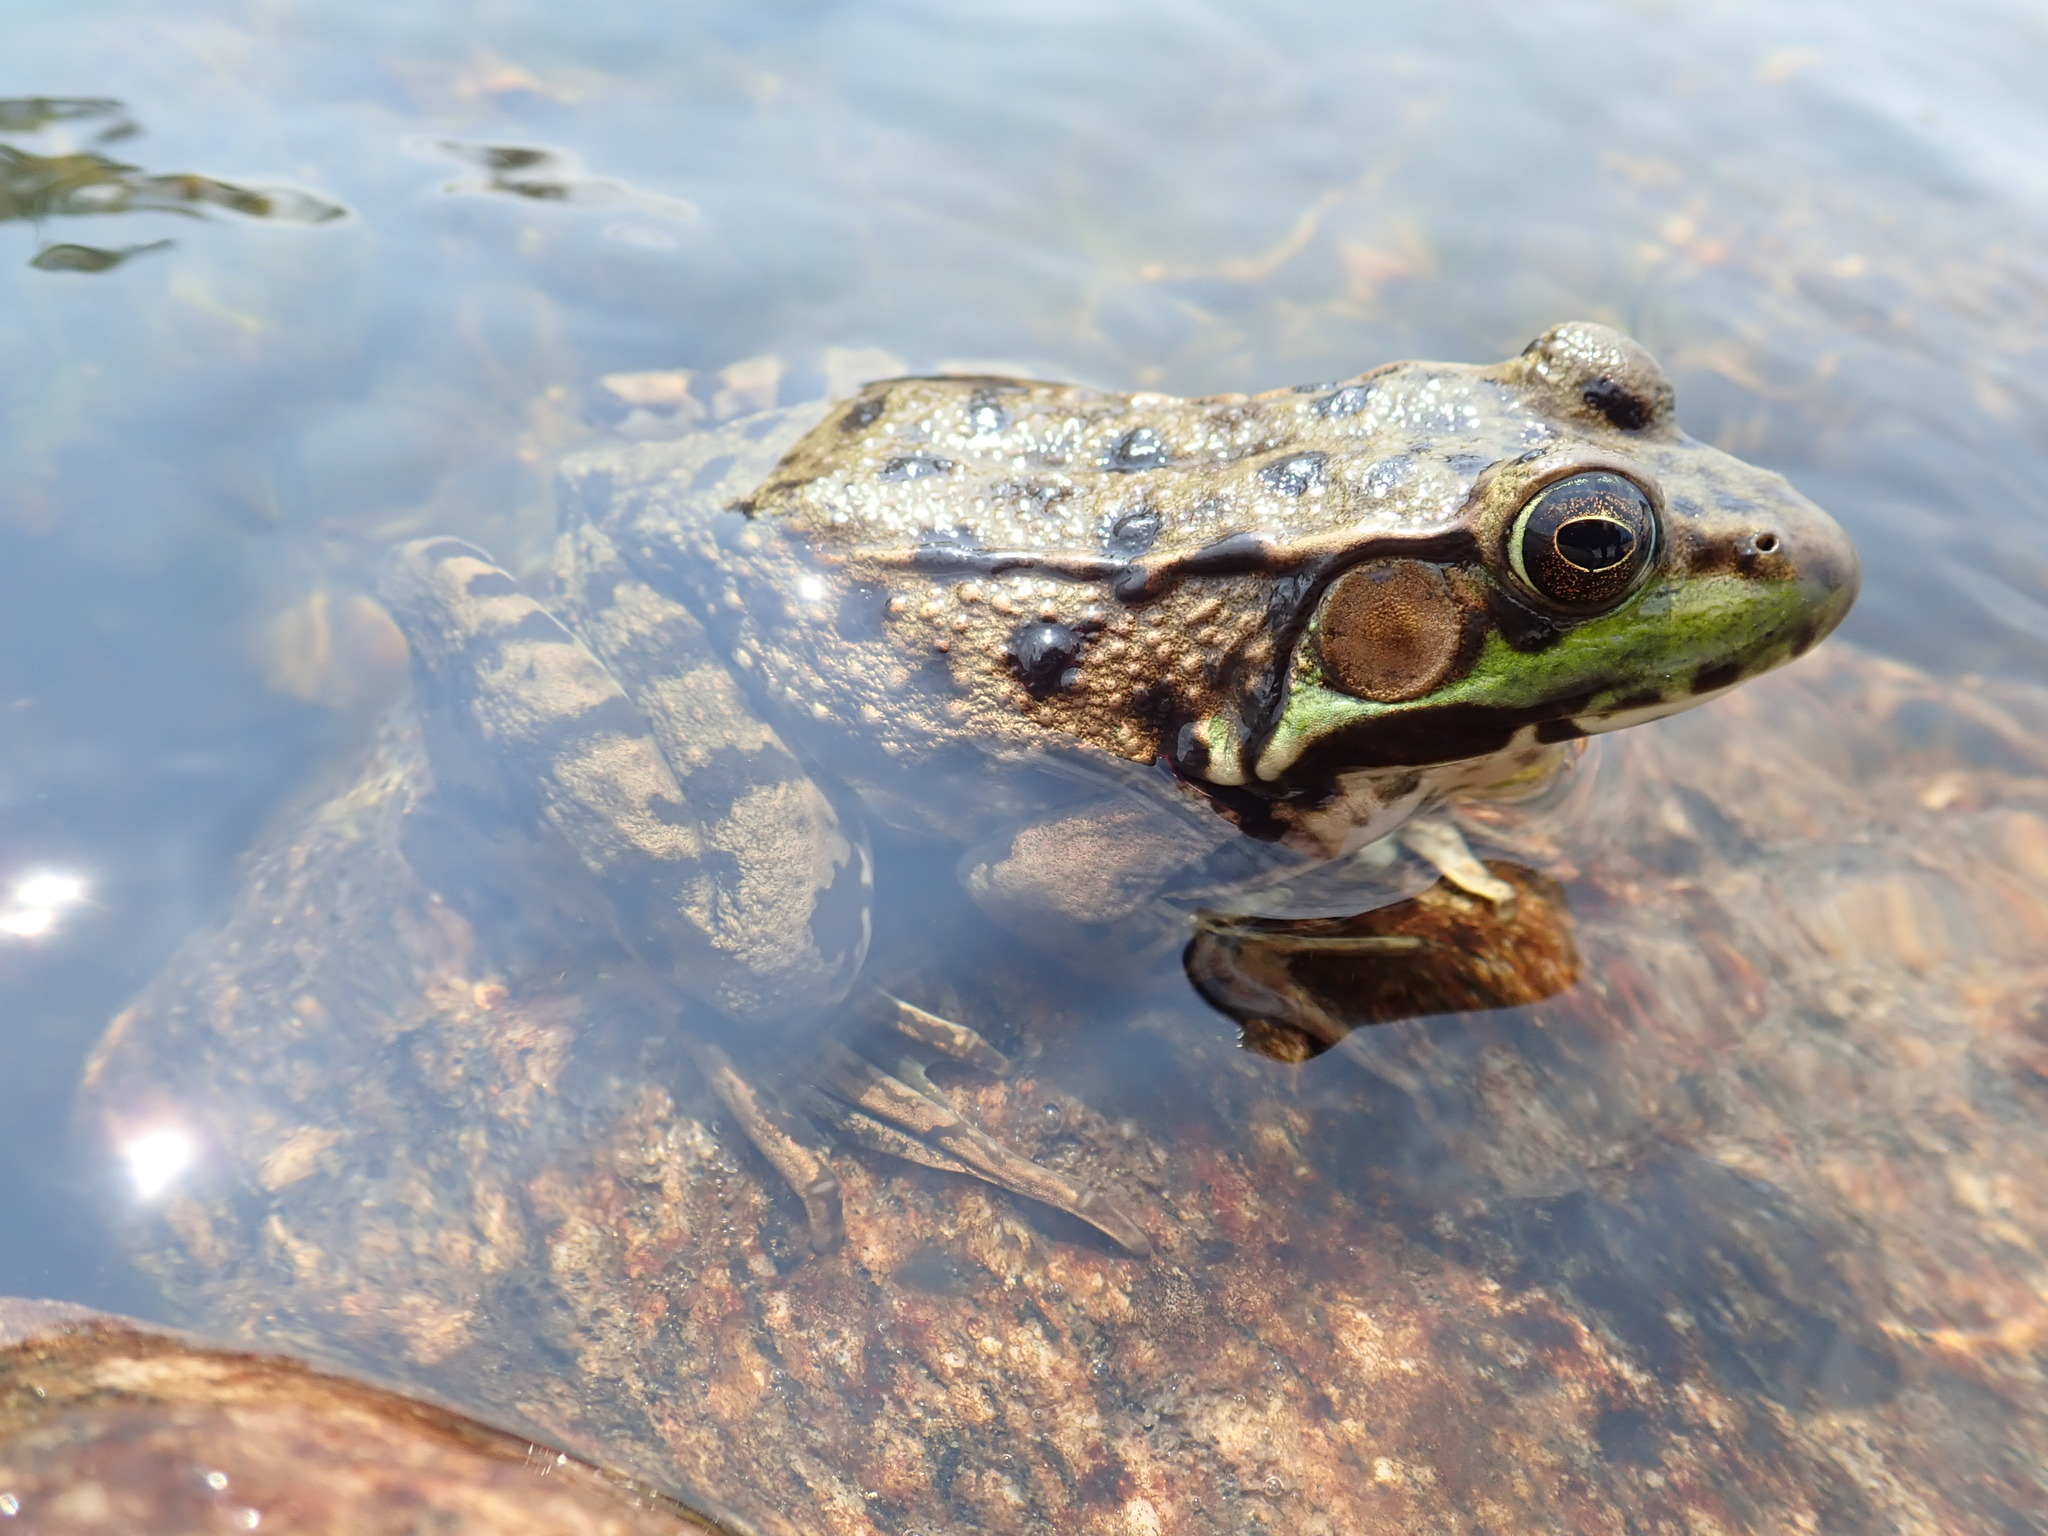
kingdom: Animalia
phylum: Chordata
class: Amphibia
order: Anura
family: Ranidae
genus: Lithobates
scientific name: Lithobates clamitans
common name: Green frog
